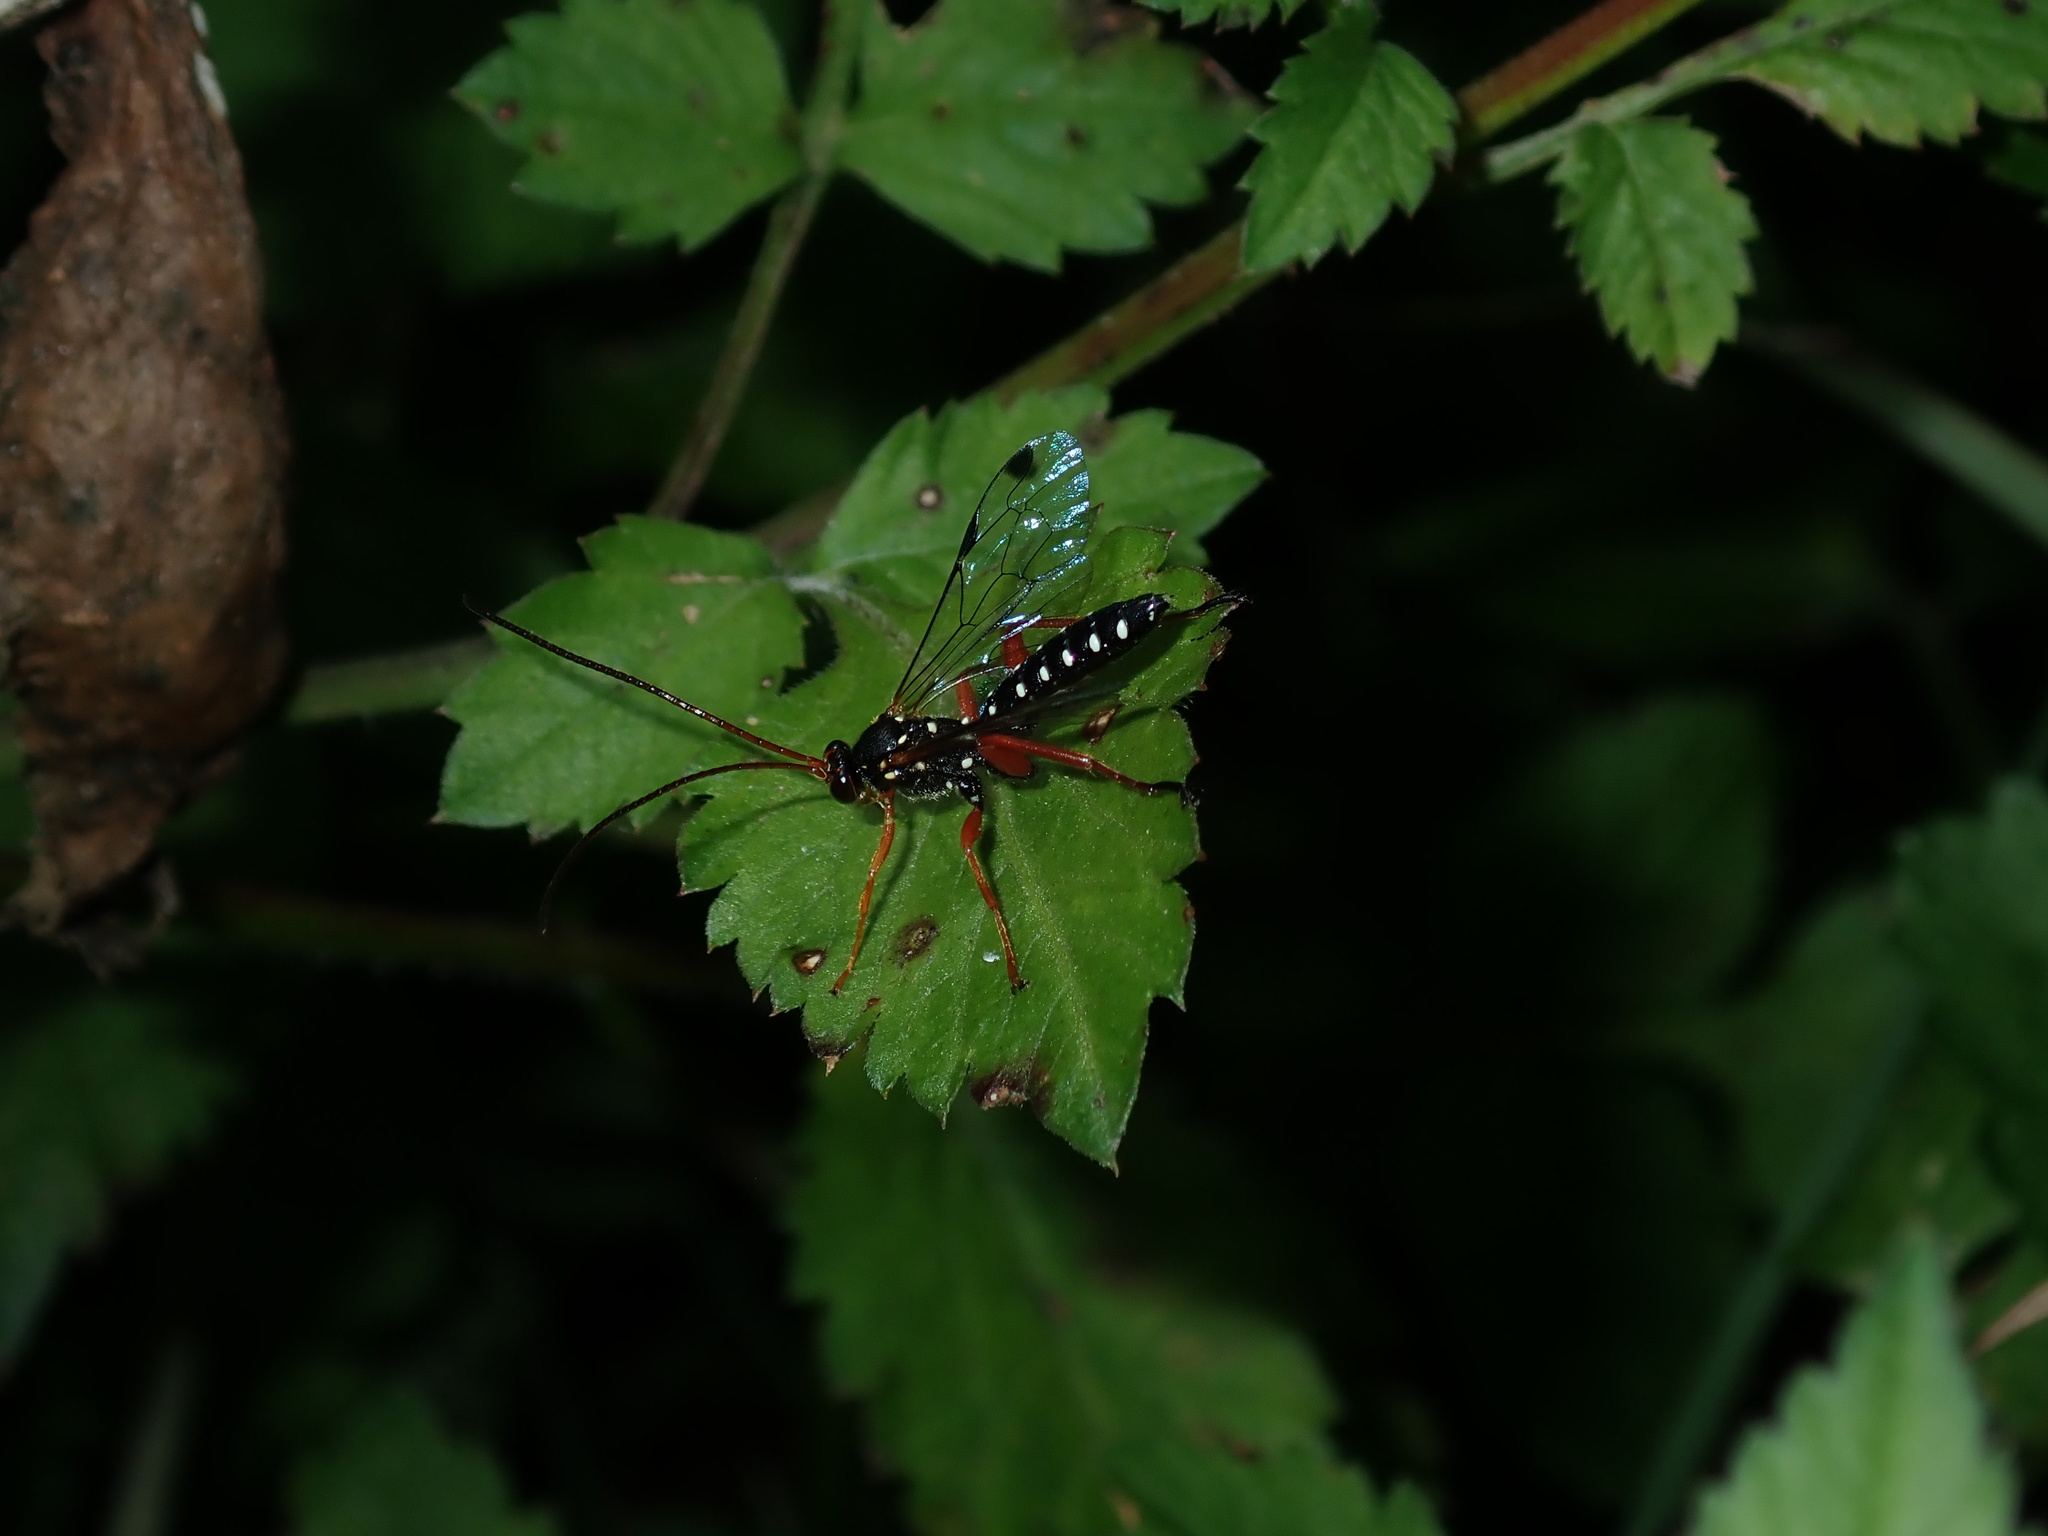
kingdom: Animalia
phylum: Arthropoda
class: Insecta
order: Hymenoptera
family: Ichneumonidae
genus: Echthromorpha
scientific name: Echthromorpha intricatoria
